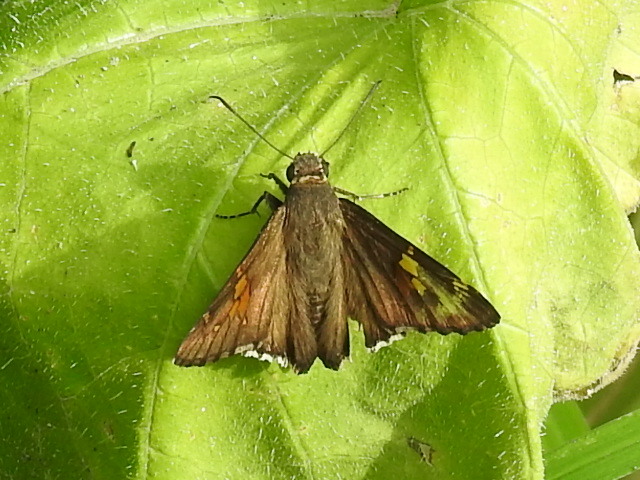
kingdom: Animalia
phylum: Arthropoda
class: Insecta
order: Lepidoptera
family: Hesperiidae
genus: Thorybes
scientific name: Thorybes lyciades
